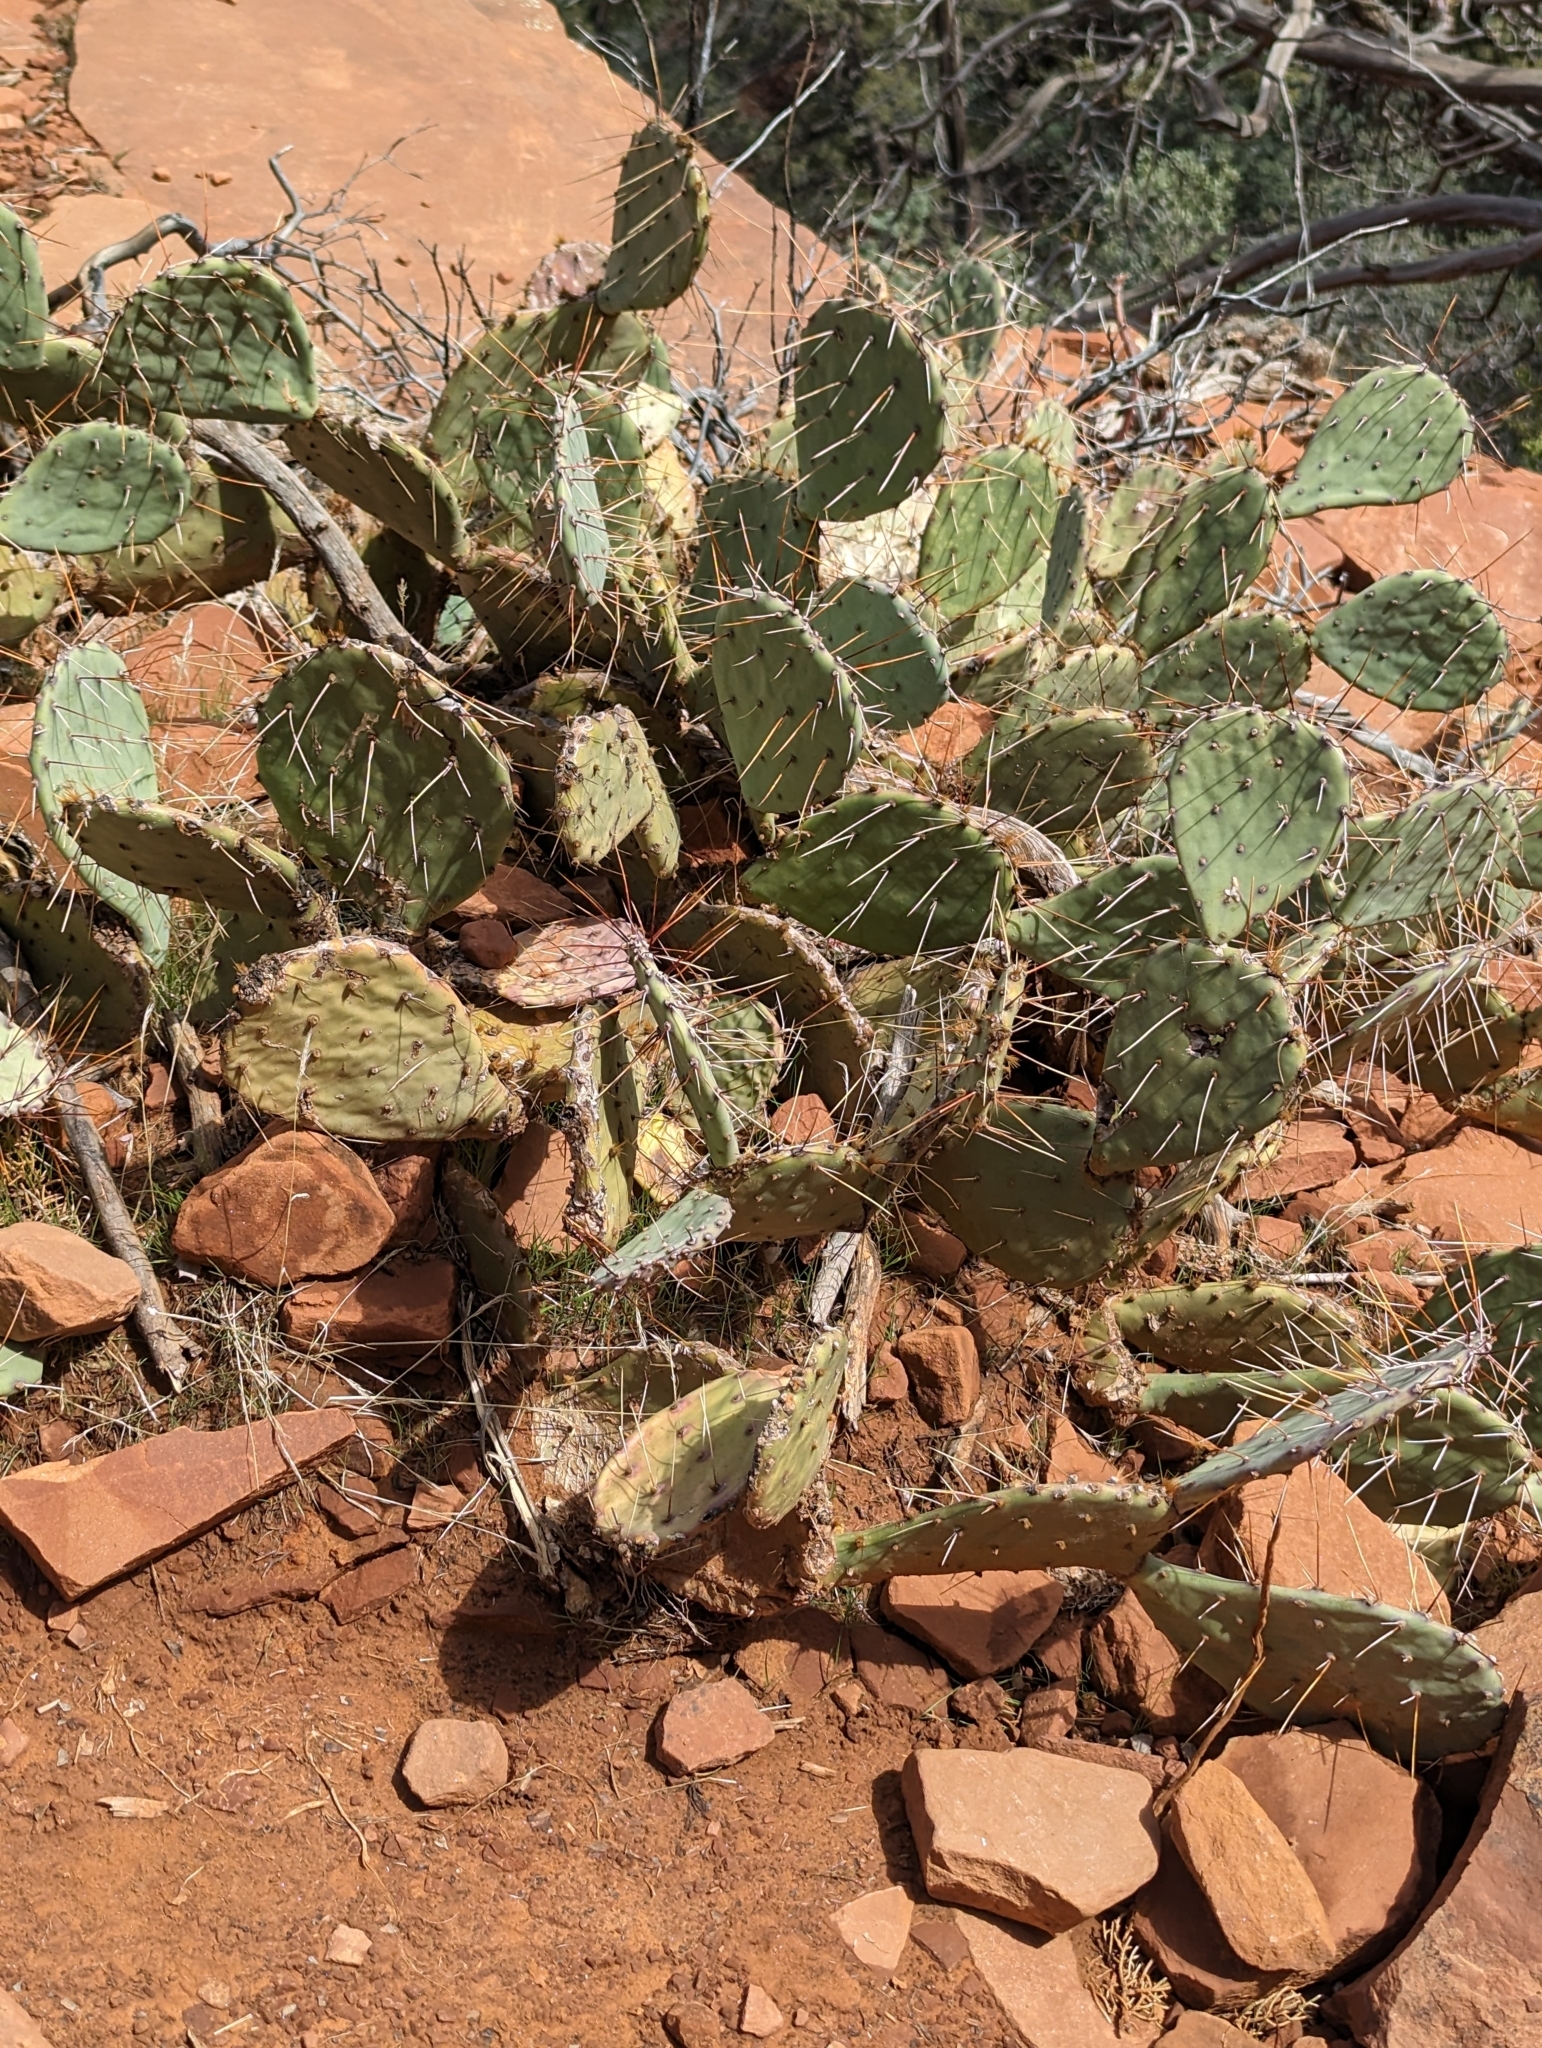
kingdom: Plantae
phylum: Tracheophyta
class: Magnoliopsida
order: Caryophyllales
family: Cactaceae
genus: Opuntia
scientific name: Opuntia phaeacantha
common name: New mexico prickly-pear
